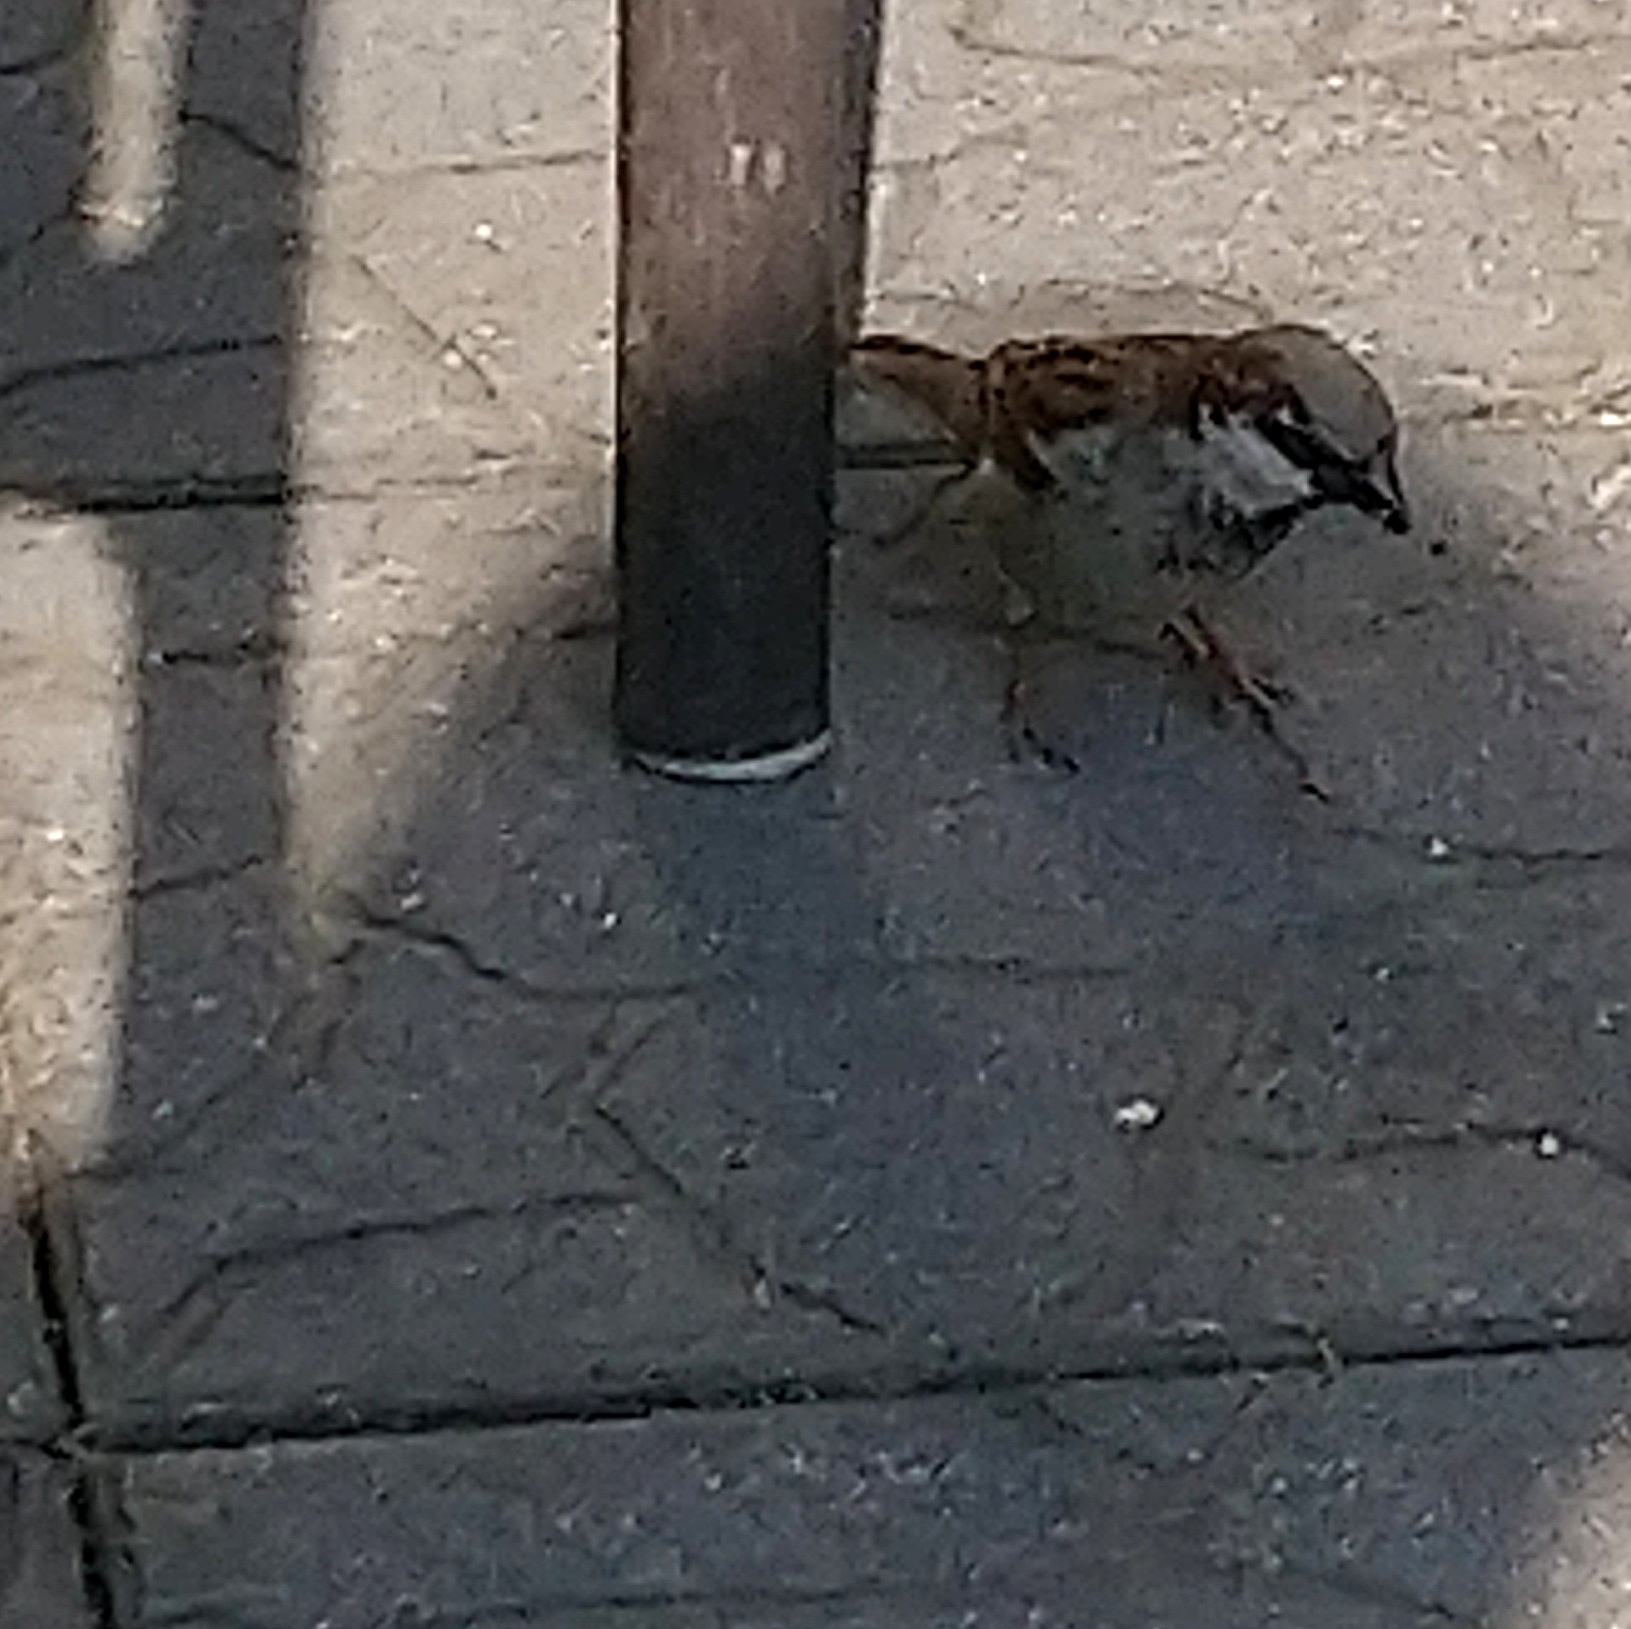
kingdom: Animalia
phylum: Chordata
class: Aves
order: Passeriformes
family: Passeridae
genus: Passer
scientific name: Passer domesticus
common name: House sparrow
